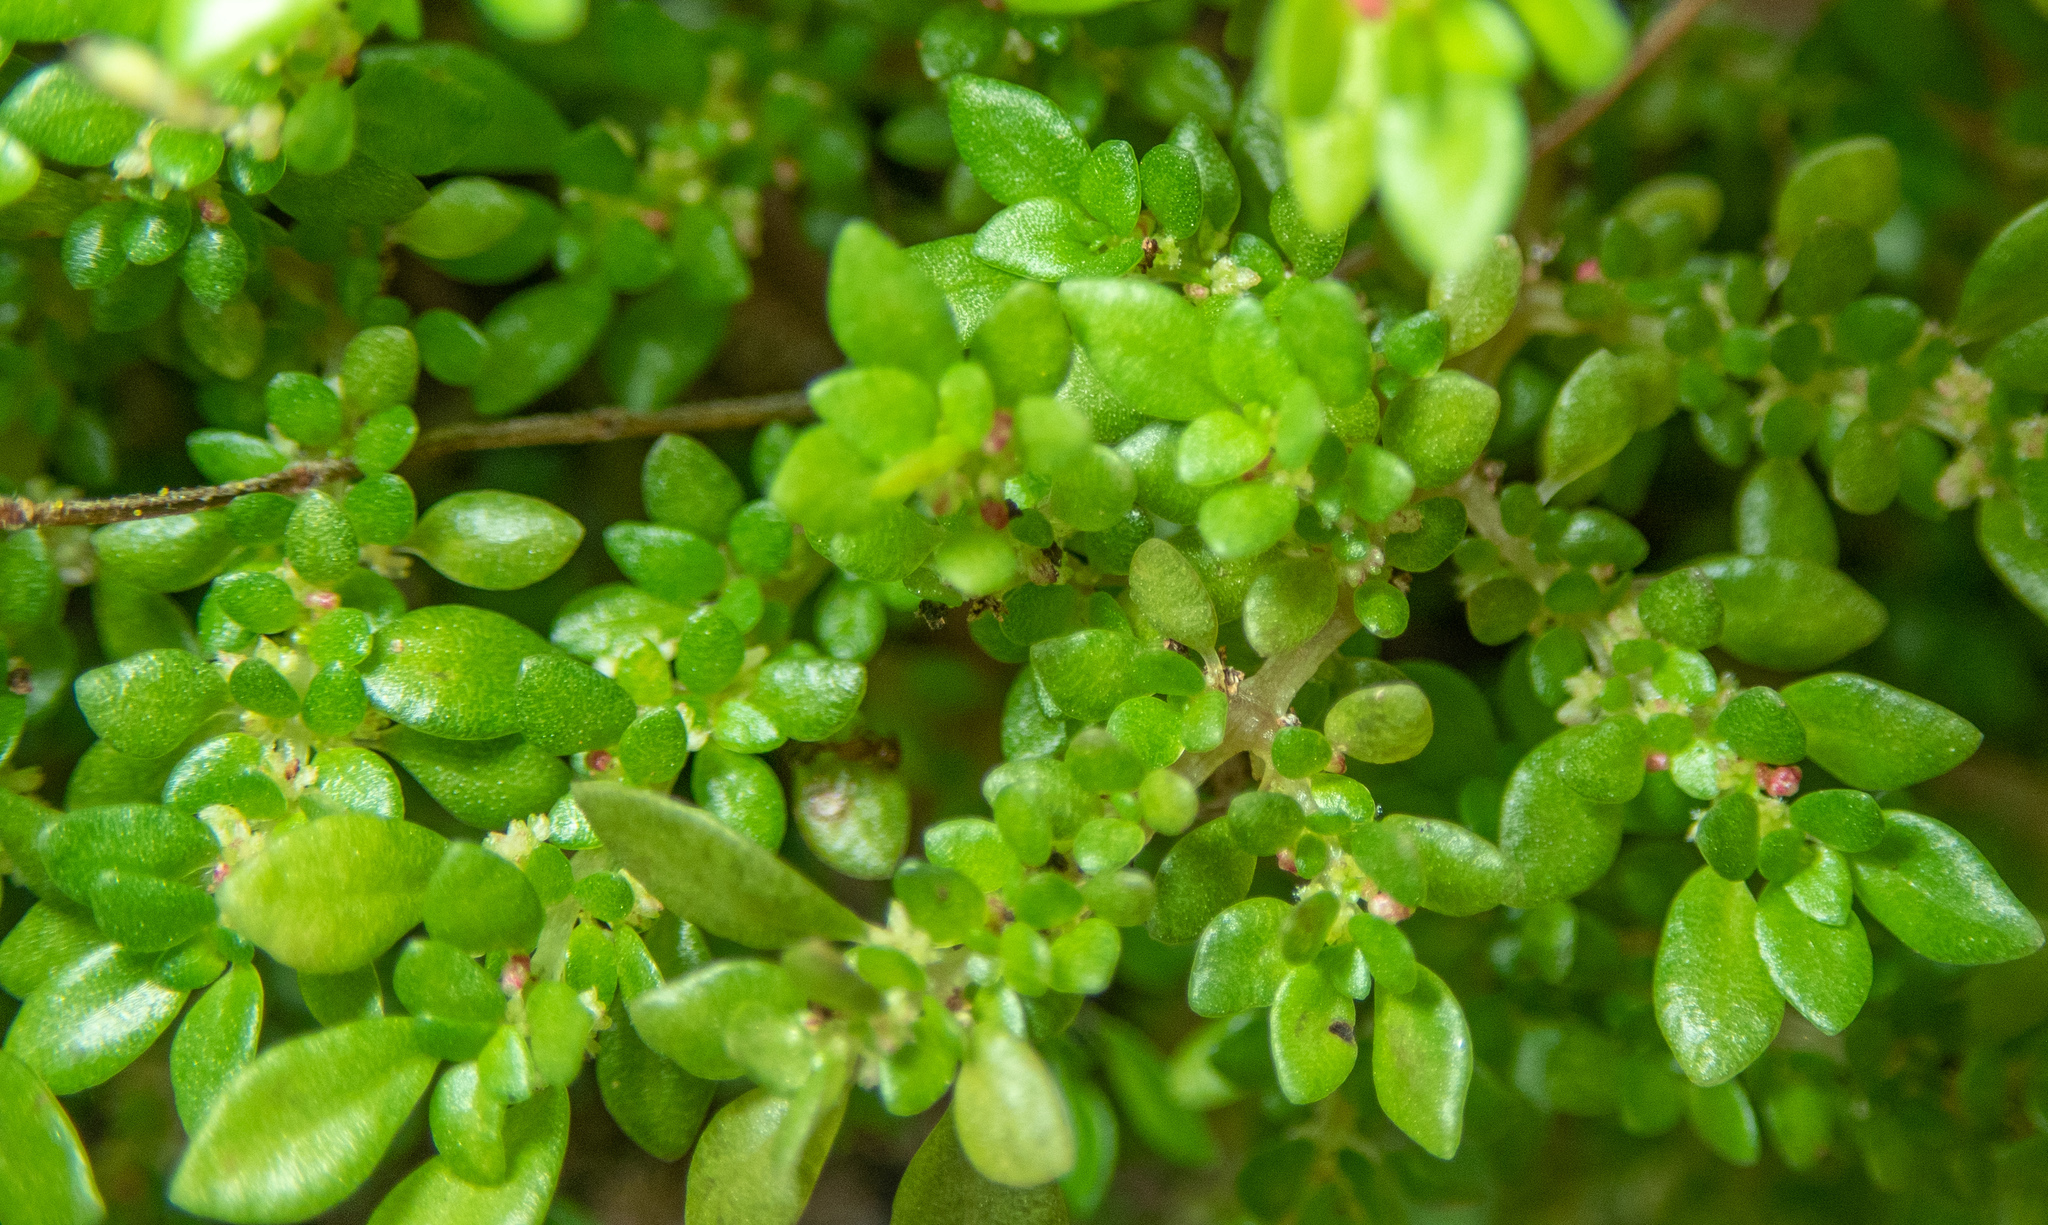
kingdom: Plantae
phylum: Tracheophyta
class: Magnoliopsida
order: Rosales
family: Urticaceae
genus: Pilea
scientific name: Pilea microphylla
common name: Artillery-plant
